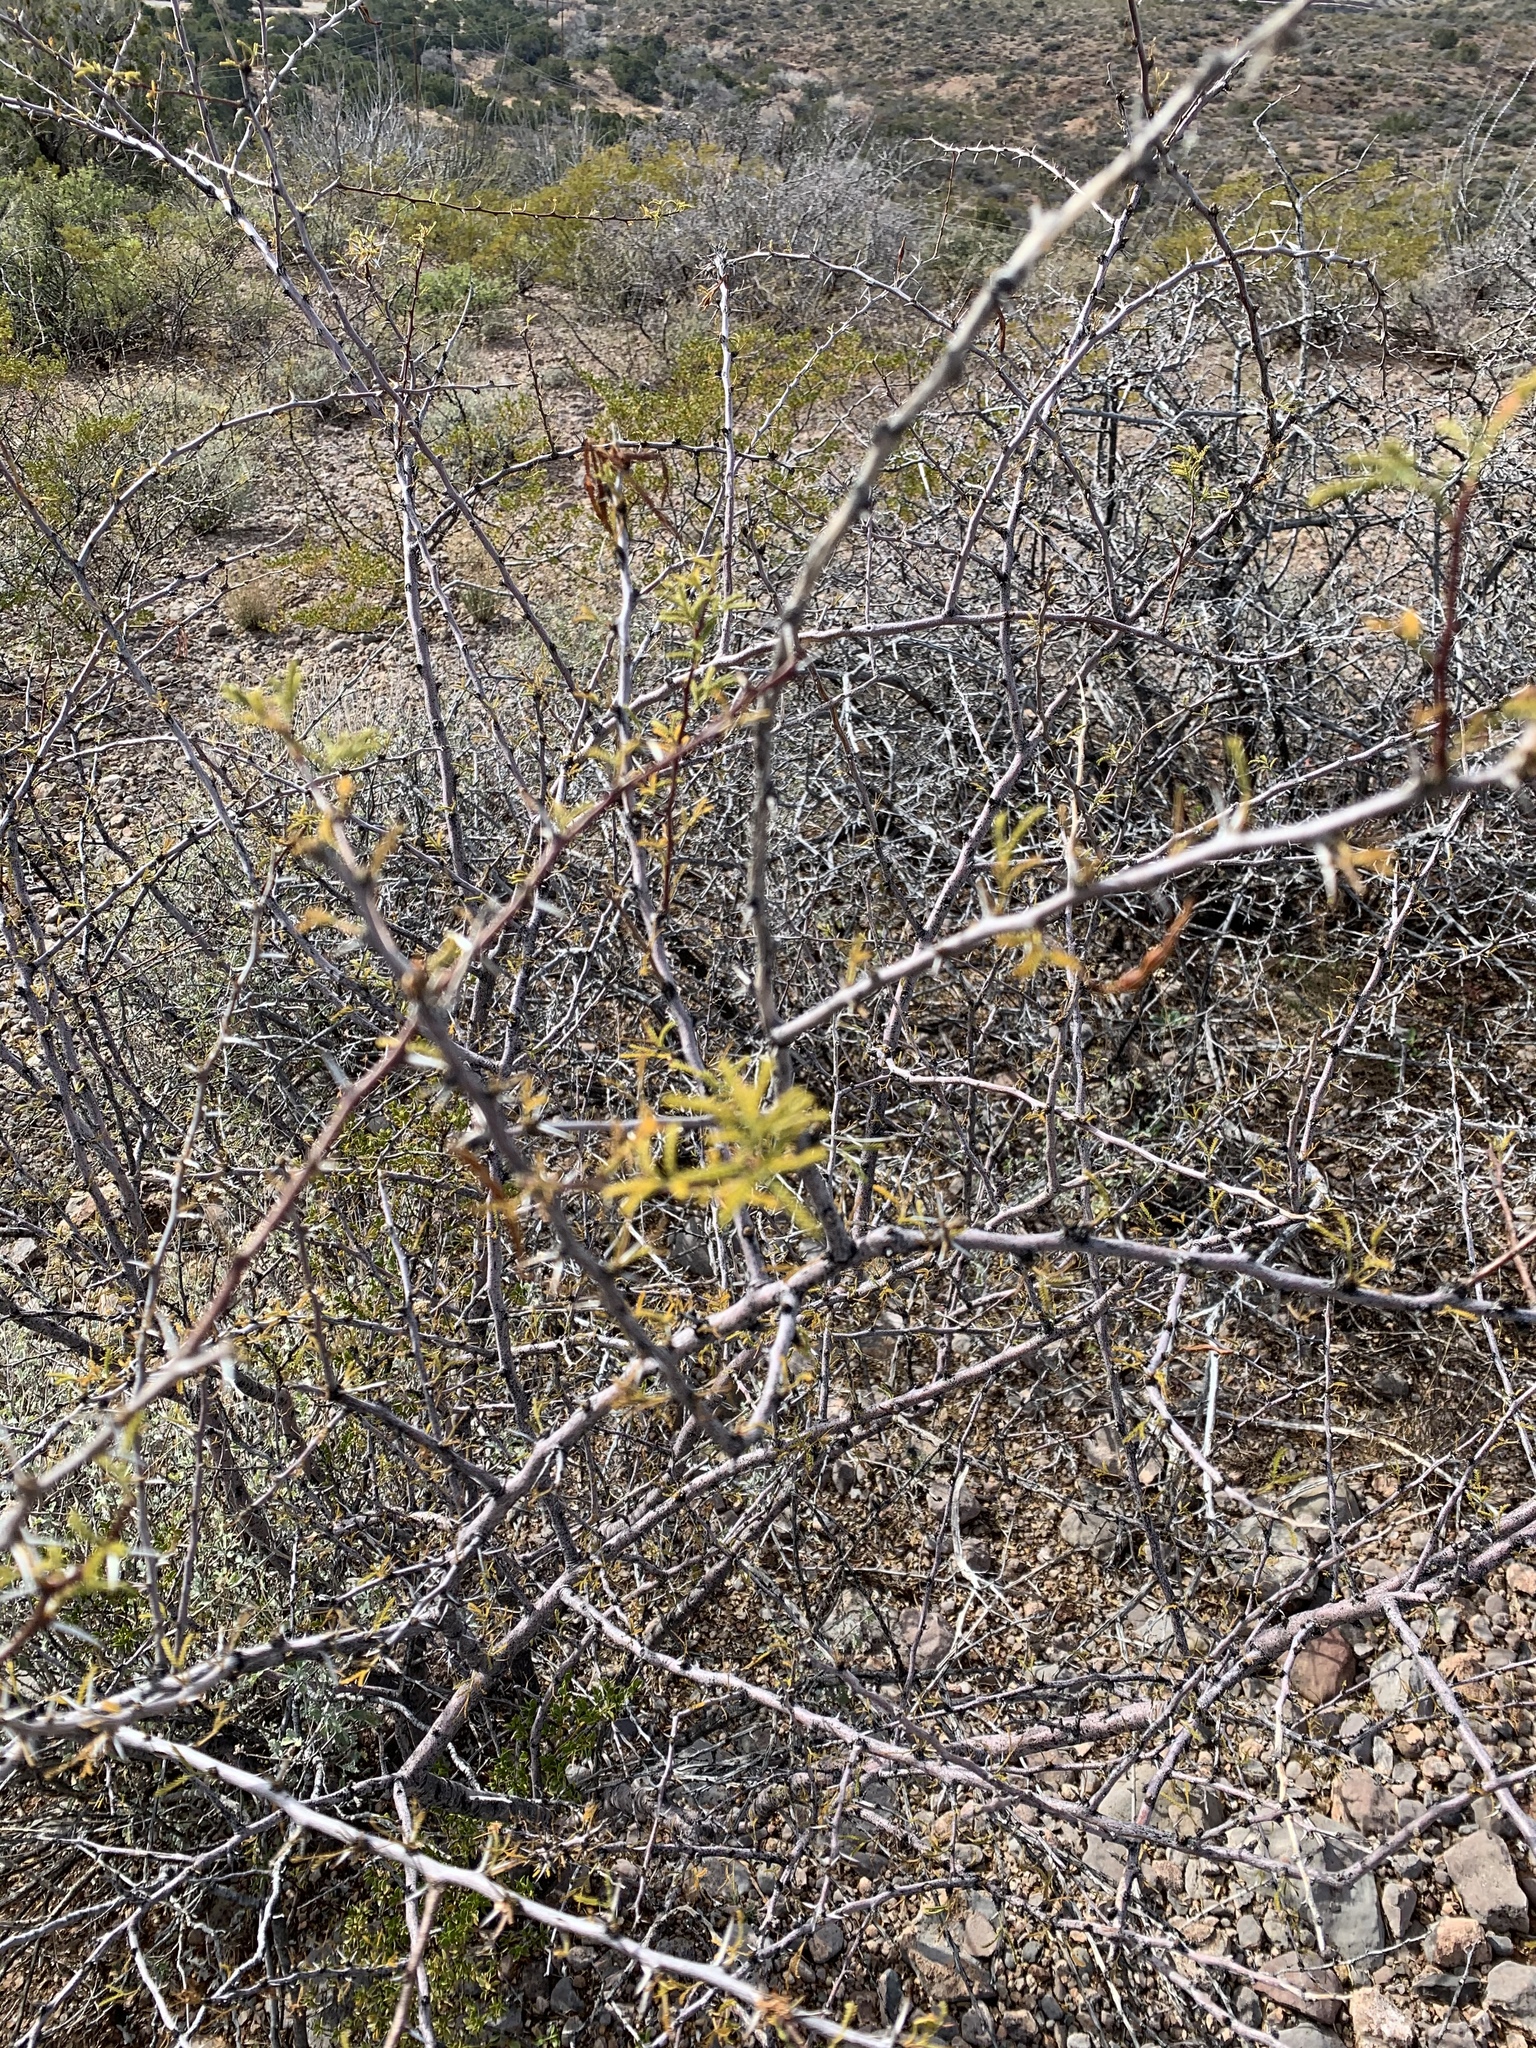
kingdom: Plantae
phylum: Tracheophyta
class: Magnoliopsida
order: Fabales
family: Fabaceae
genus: Vachellia
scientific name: Vachellia constricta
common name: Mescat acacia
